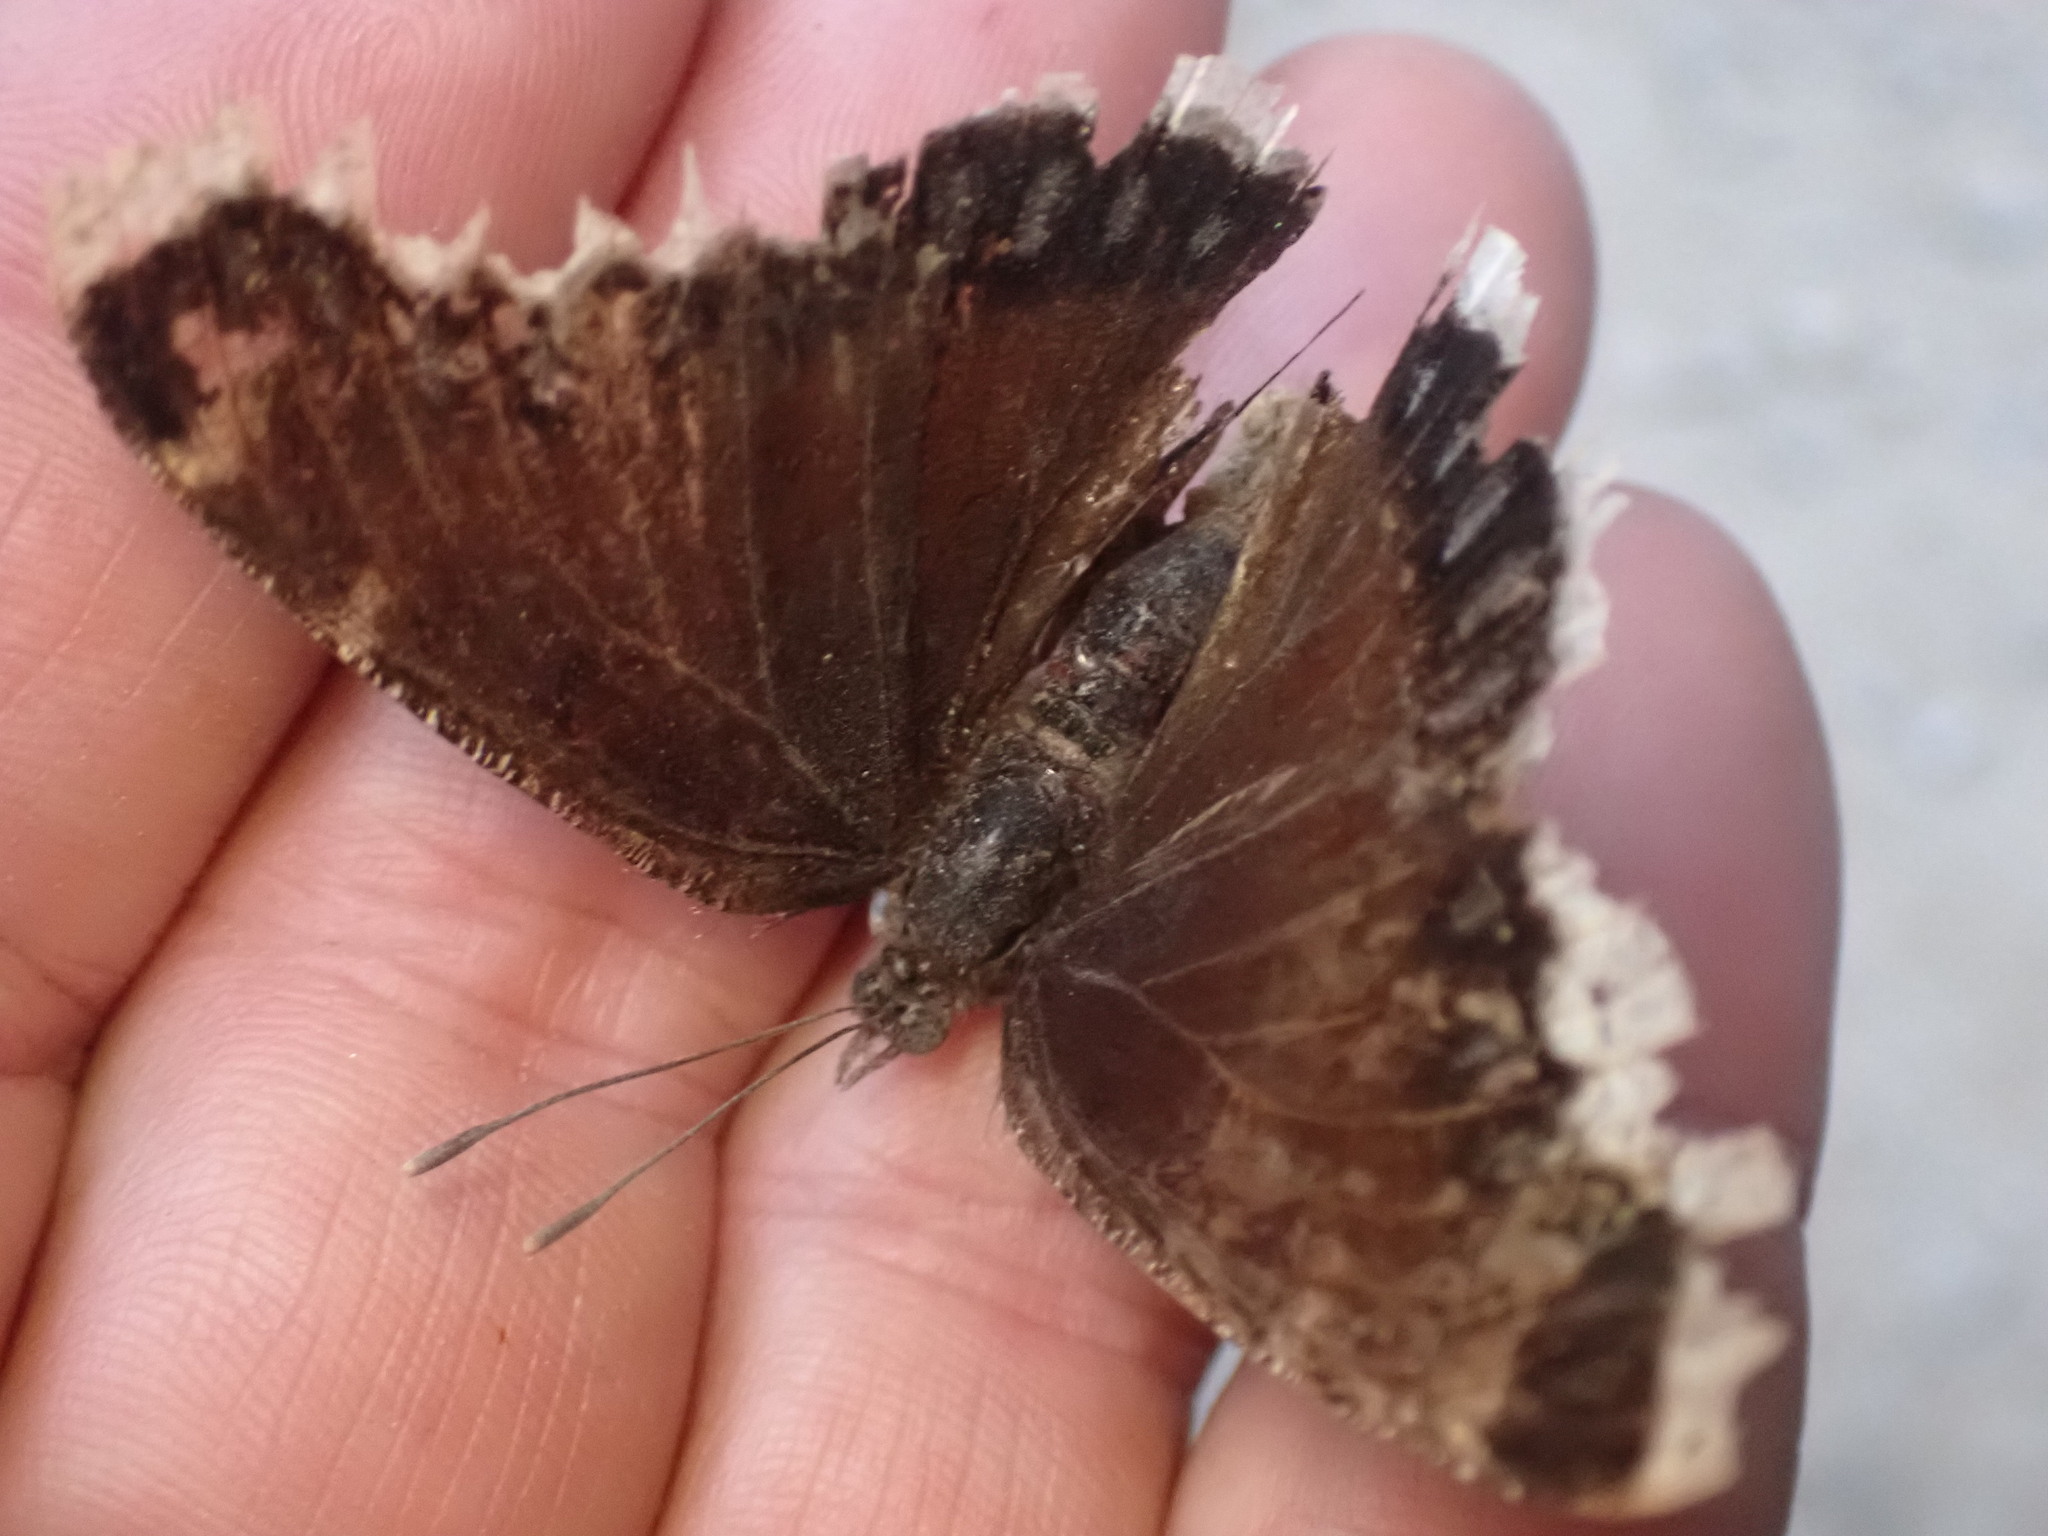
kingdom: Animalia
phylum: Arthropoda
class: Insecta
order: Lepidoptera
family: Nymphalidae
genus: Nymphalis
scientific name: Nymphalis antiopa
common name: Camberwell beauty
